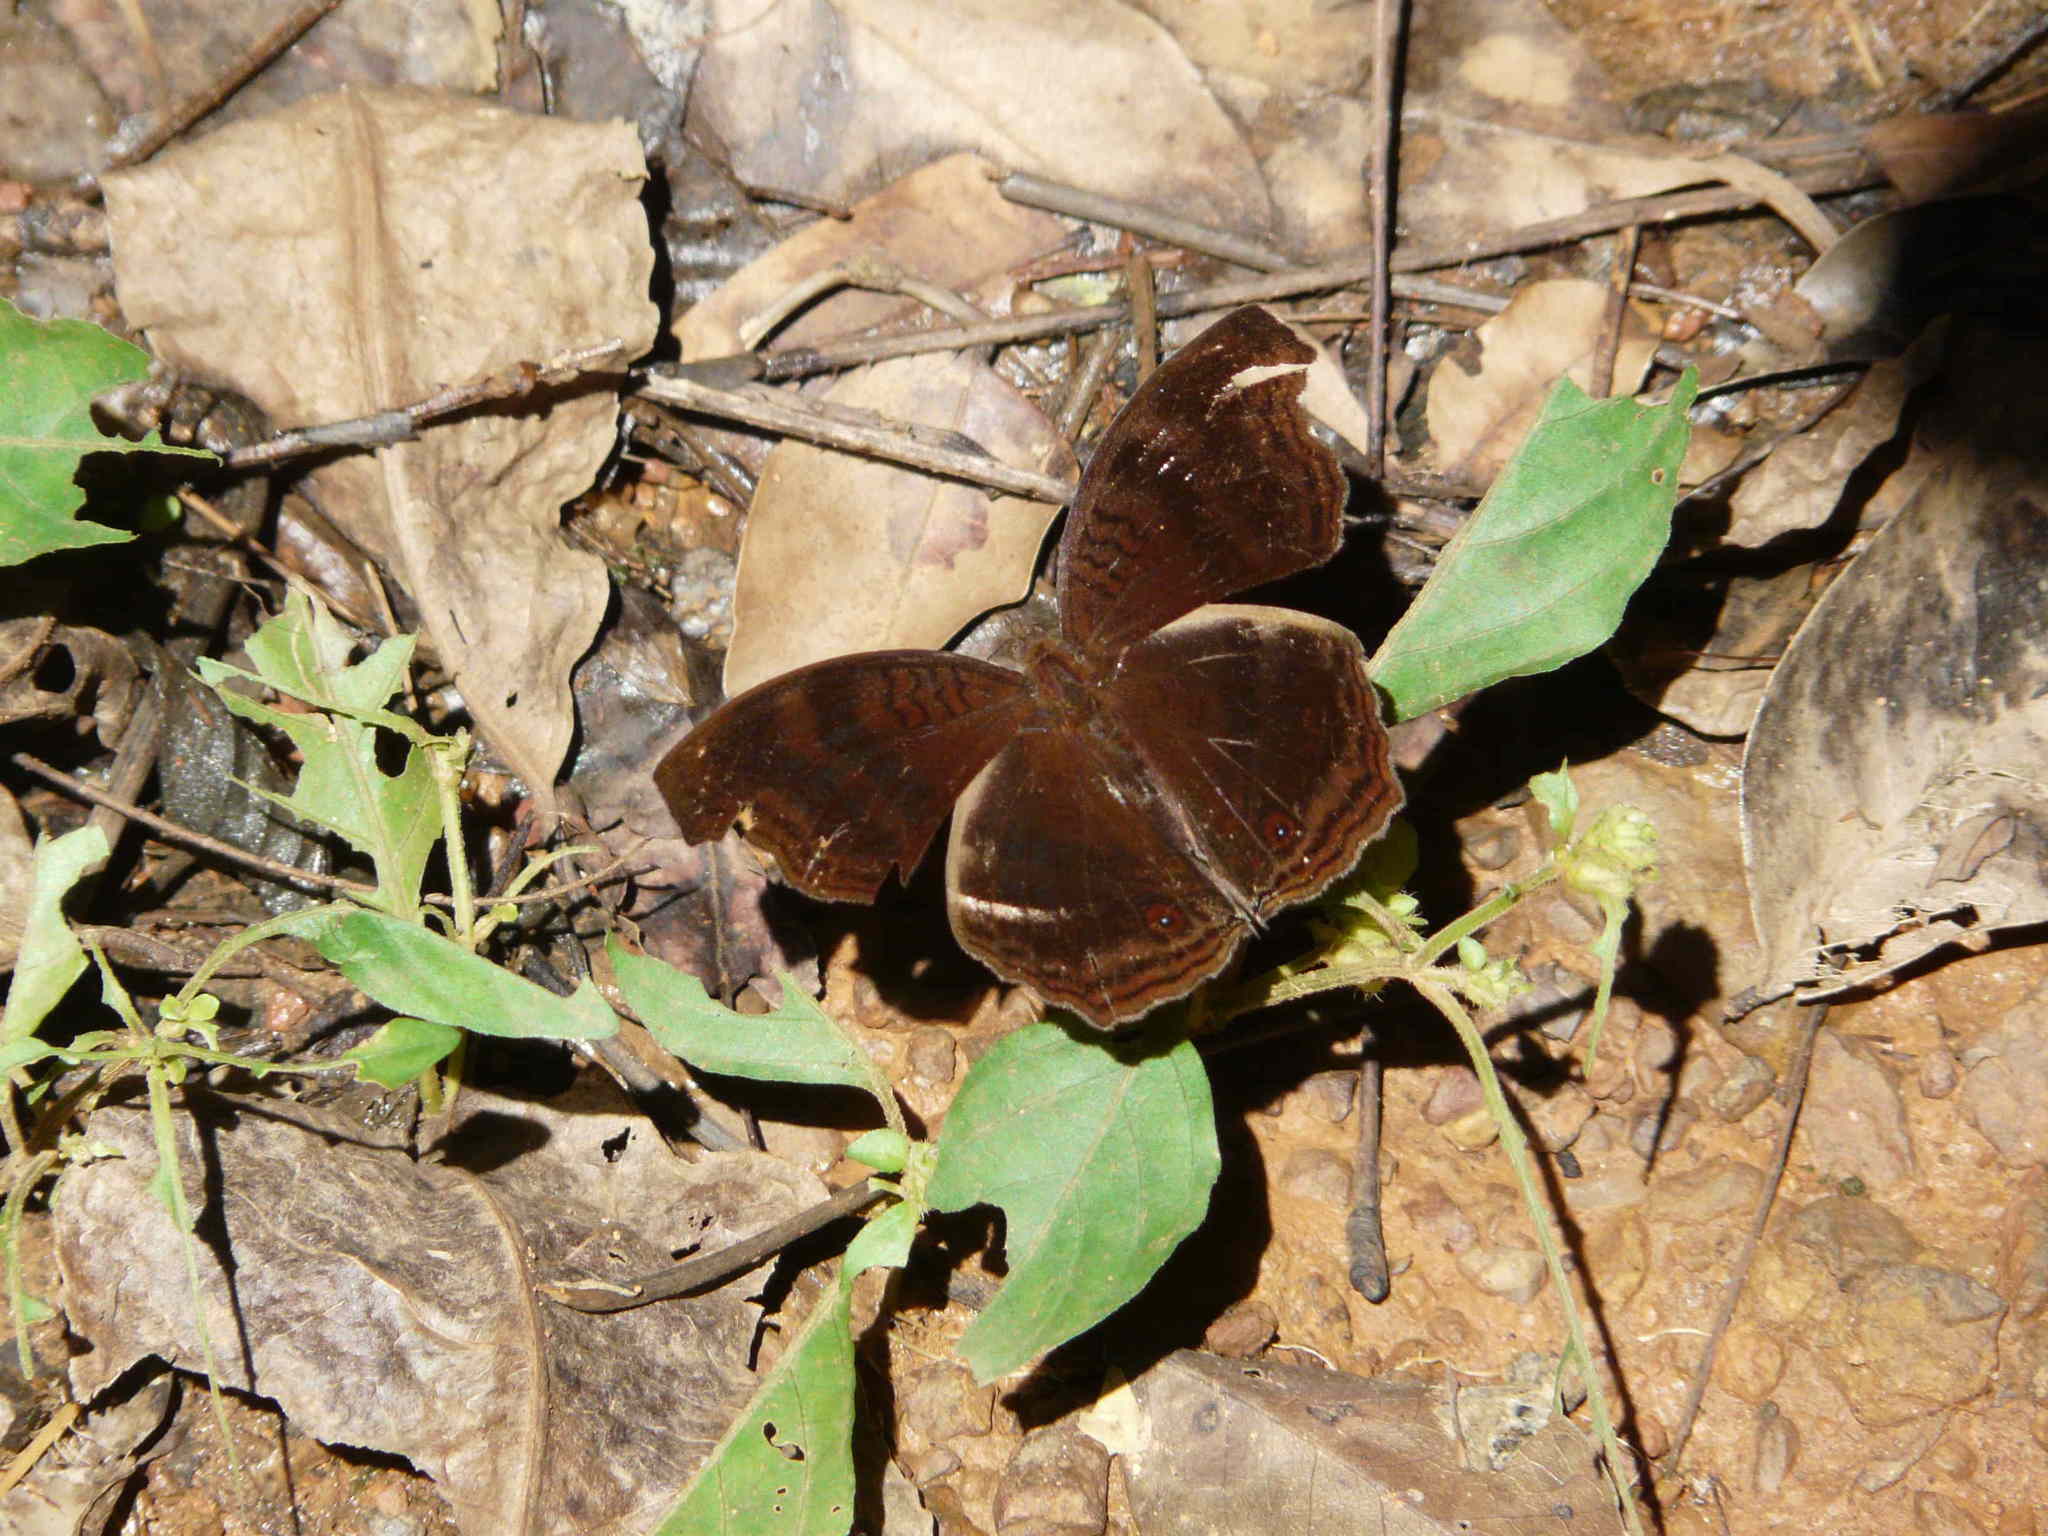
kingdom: Animalia
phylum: Arthropoda
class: Insecta
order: Lepidoptera
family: Nymphalidae
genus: Junonia
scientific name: Junonia stygia
